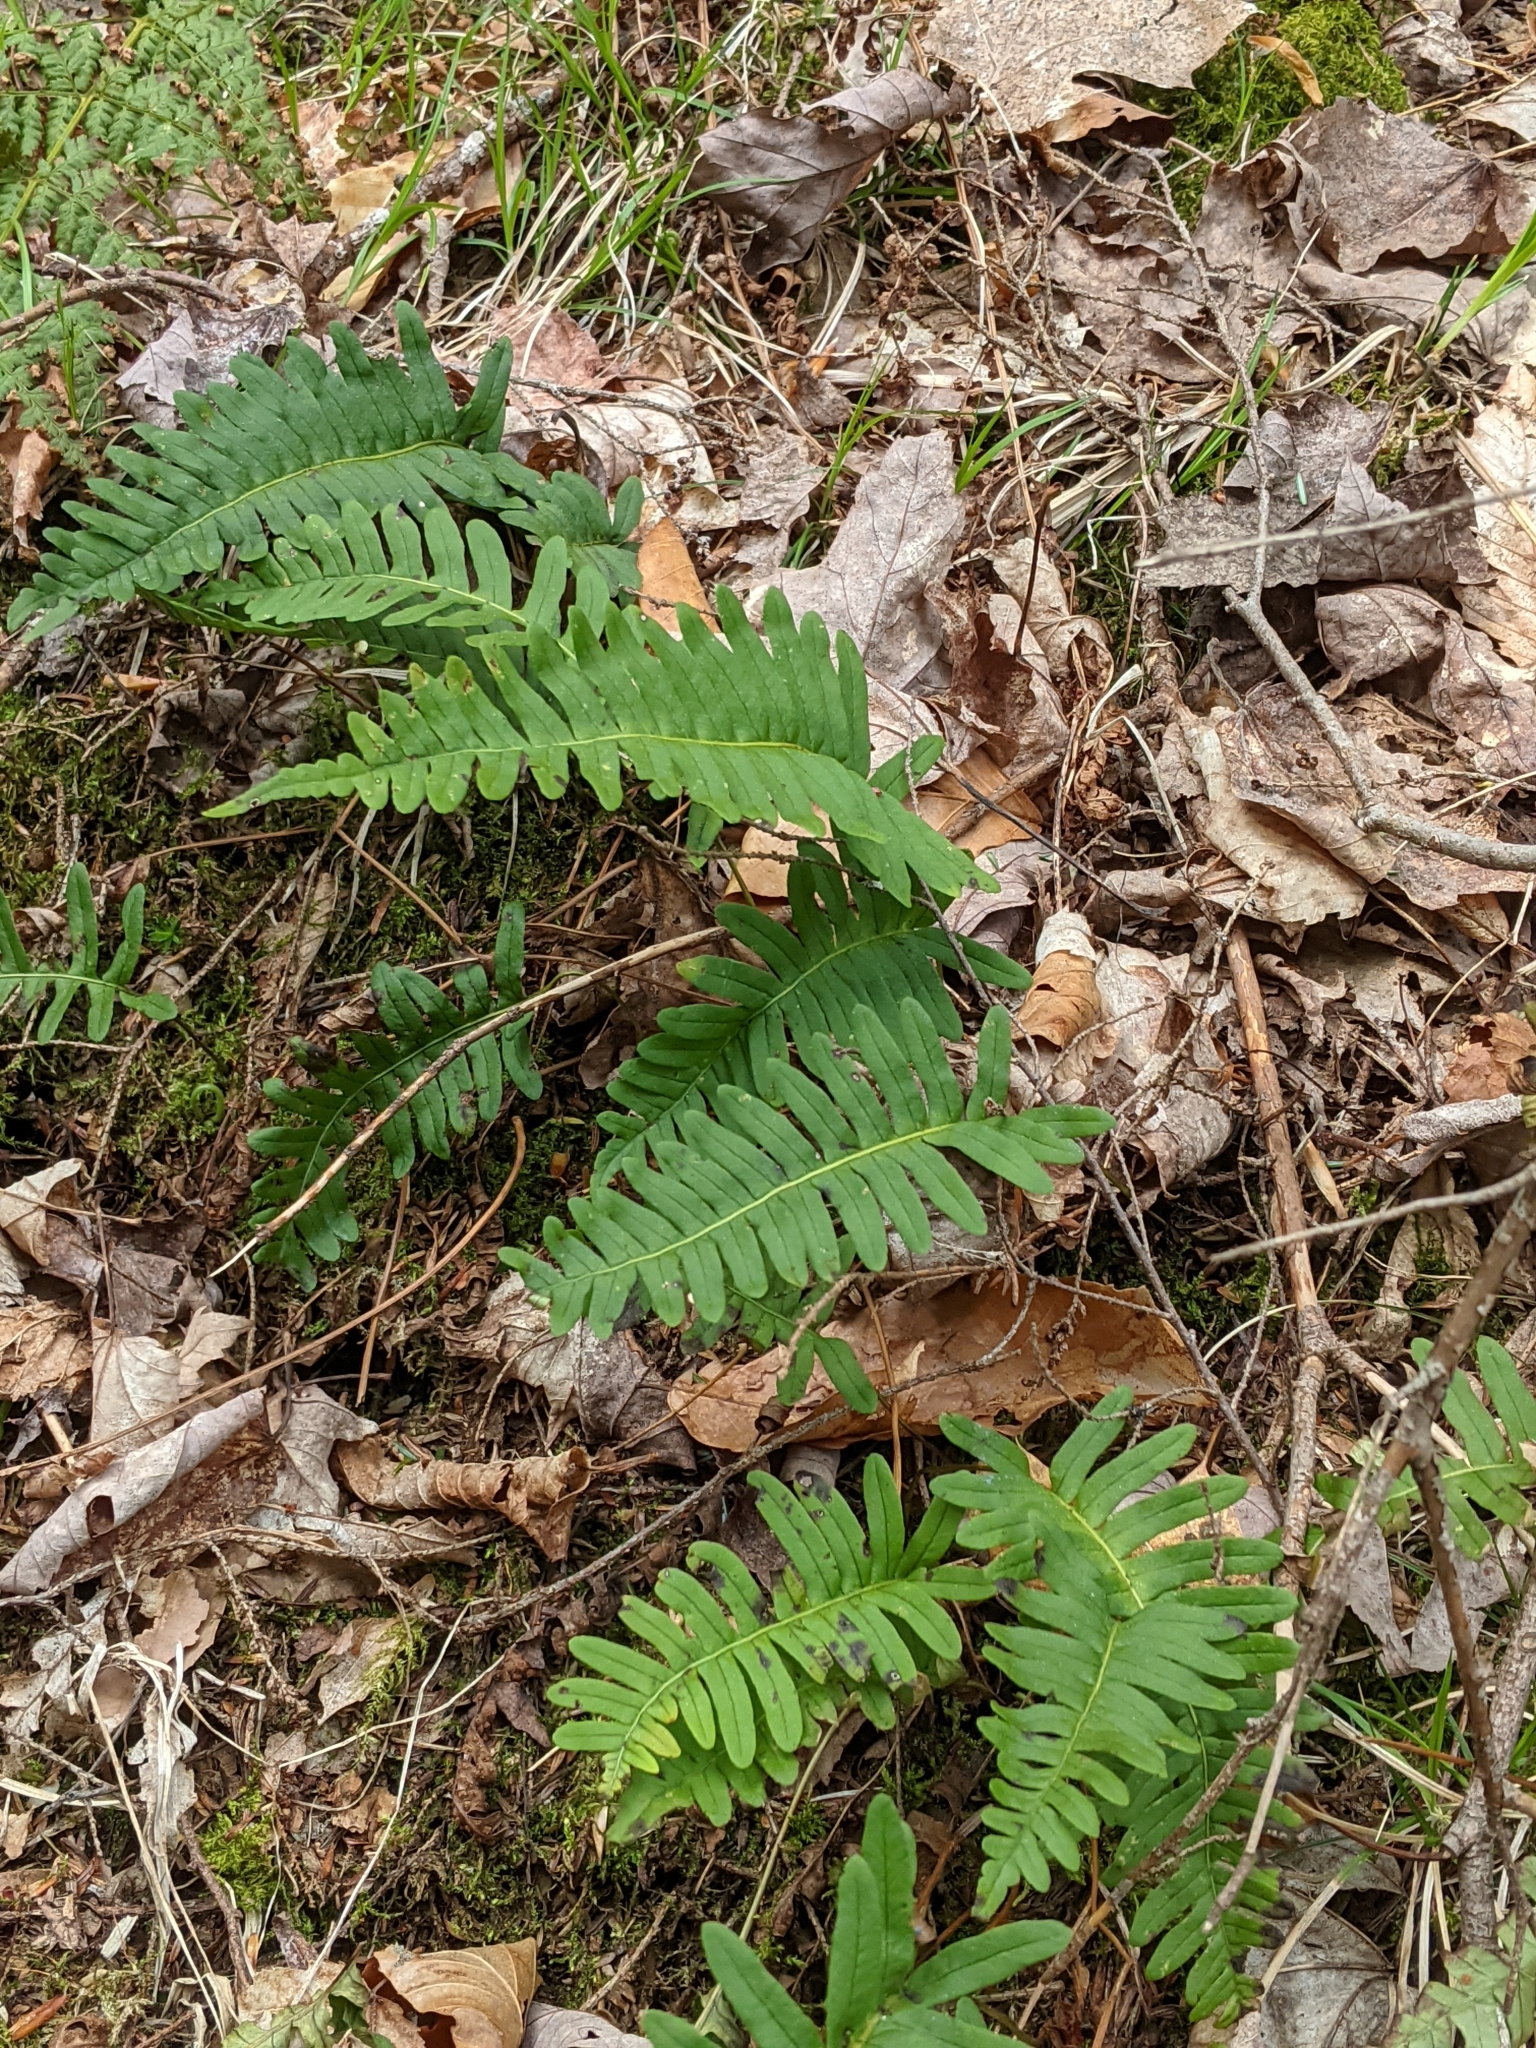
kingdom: Plantae
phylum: Tracheophyta
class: Polypodiopsida
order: Polypodiales
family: Polypodiaceae
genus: Polypodium
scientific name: Polypodium virginianum
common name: American wall fern
